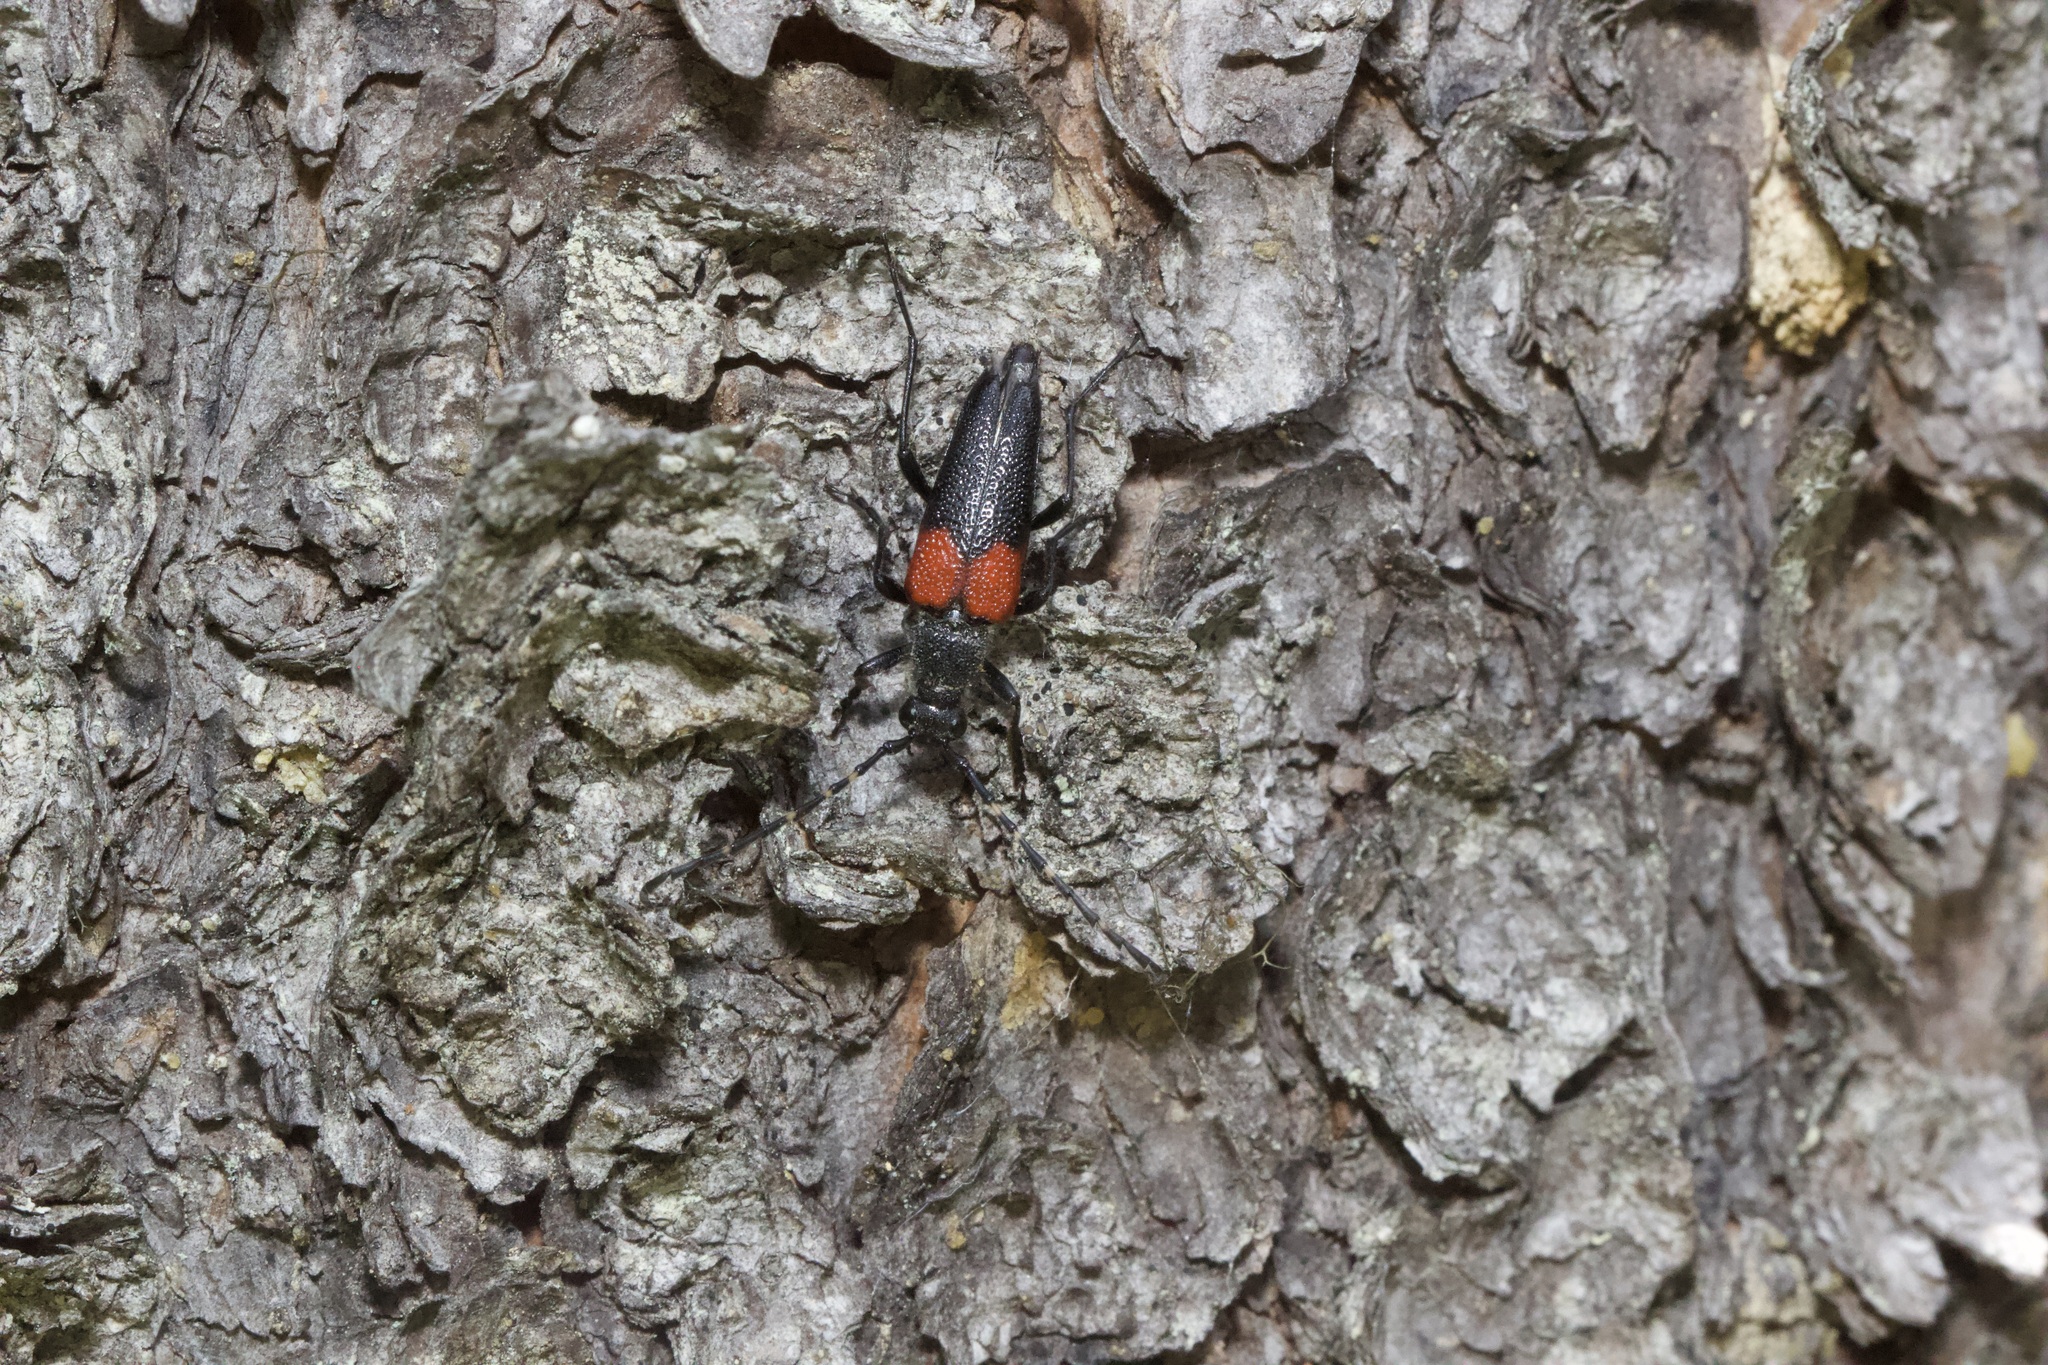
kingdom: Animalia
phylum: Arthropoda
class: Insecta
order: Coleoptera
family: Cerambycidae
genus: Stictoleptura
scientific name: Stictoleptura canadensis
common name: Red-shouldered pine borer
